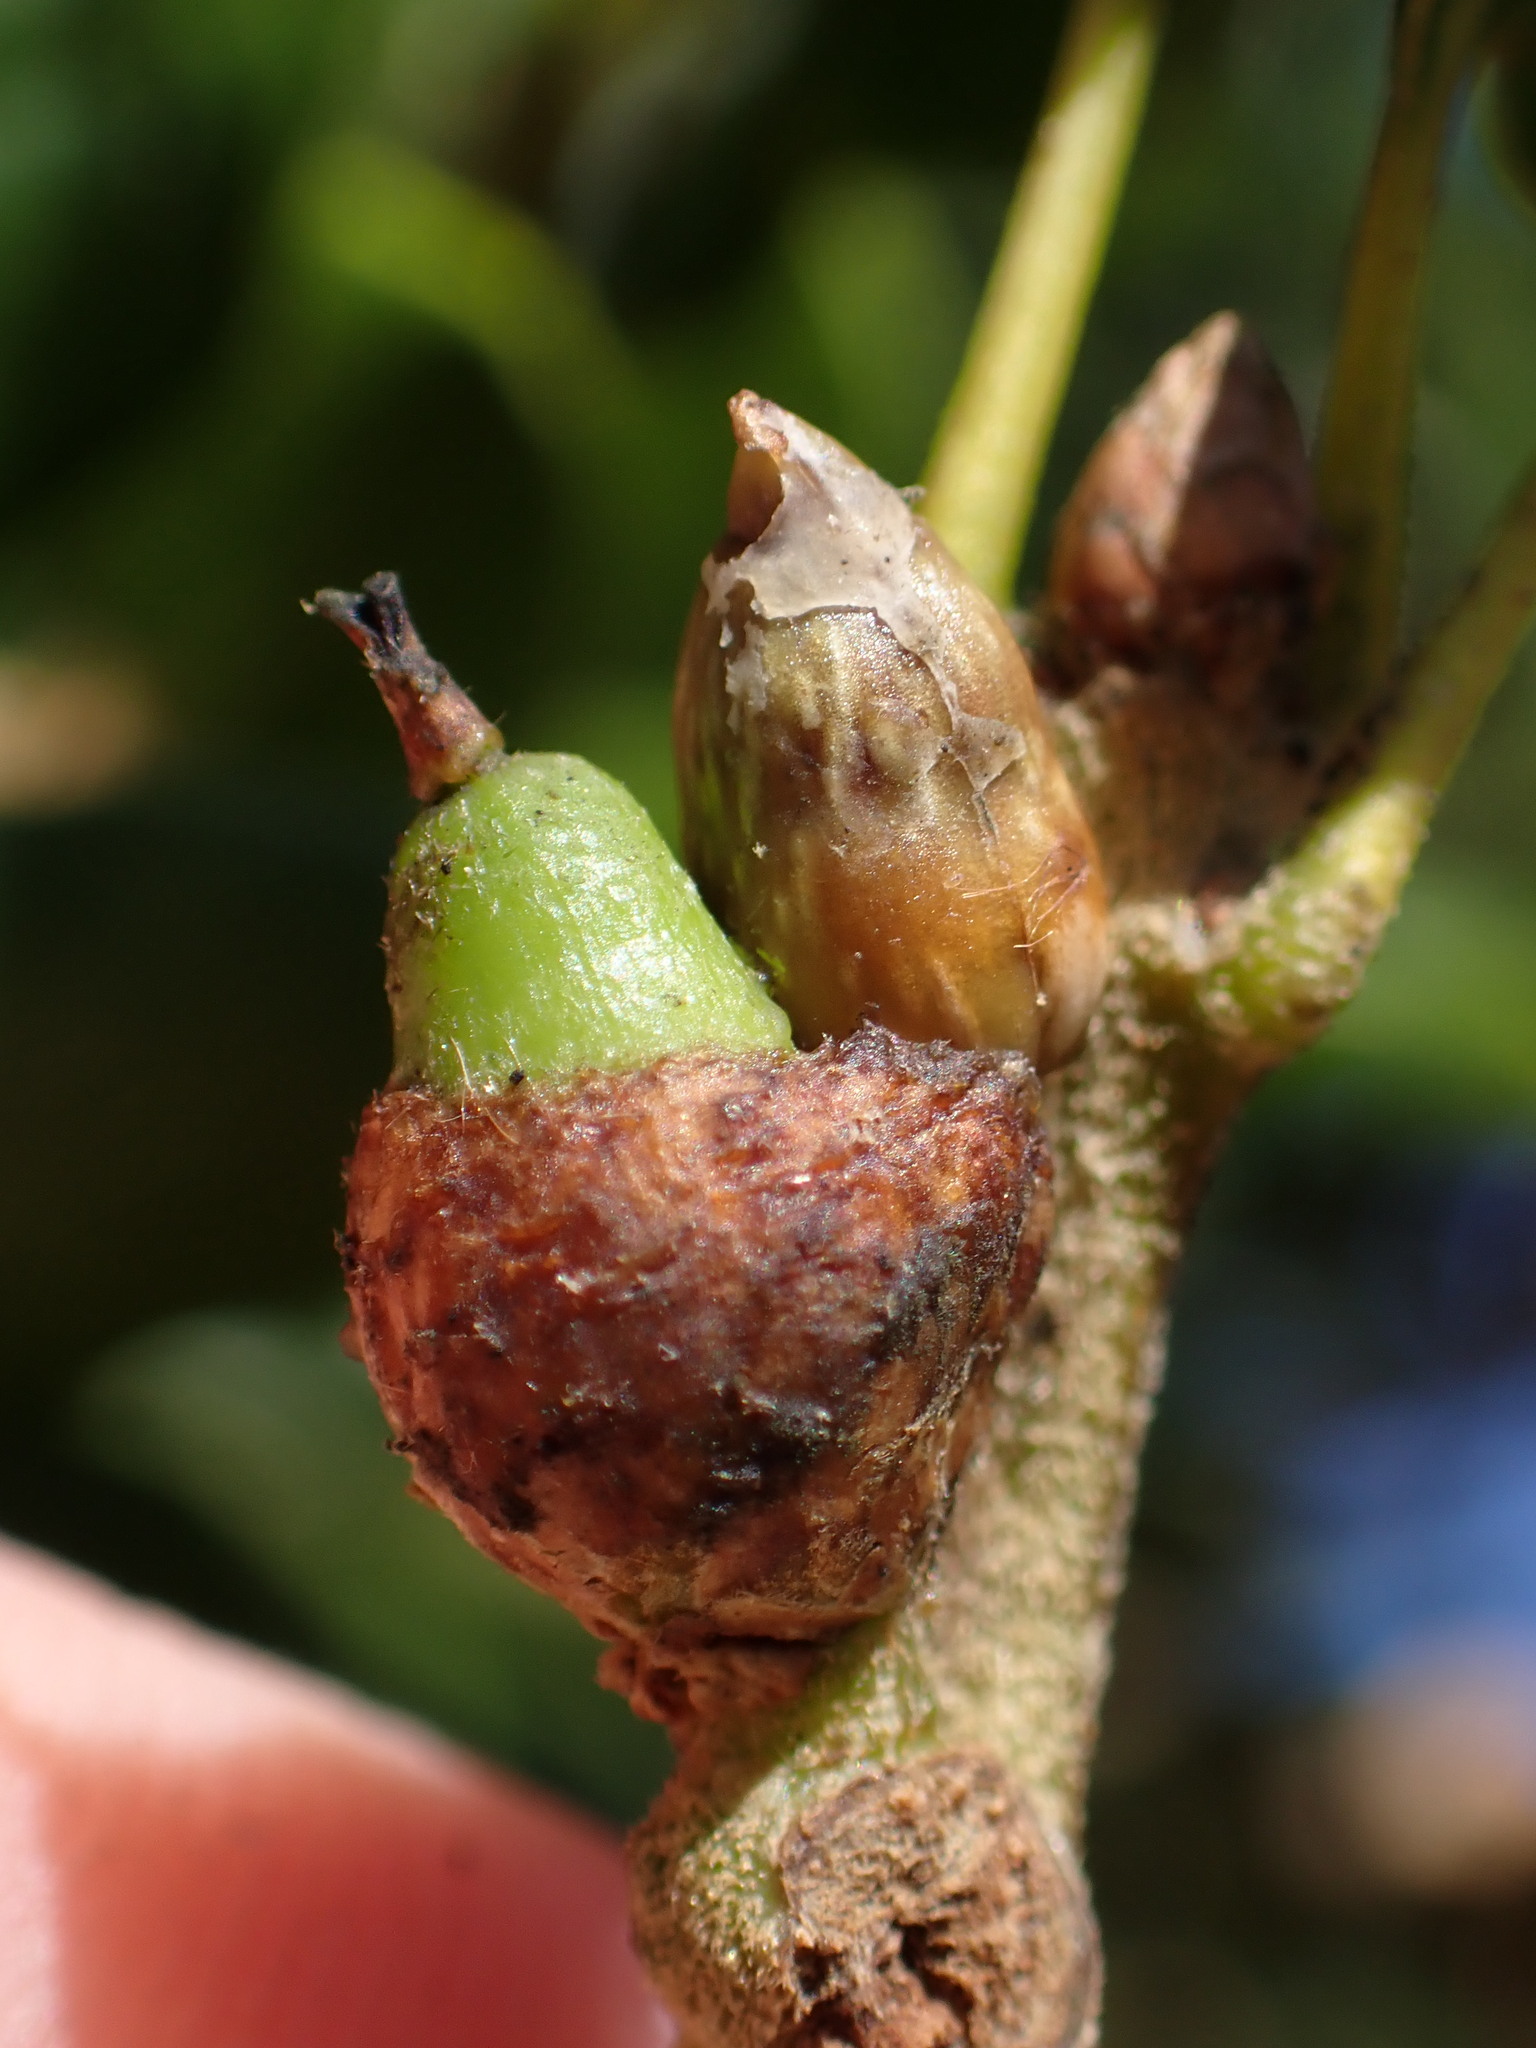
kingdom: Animalia
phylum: Arthropoda
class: Insecta
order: Hymenoptera
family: Cynipidae
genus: Callirhytis
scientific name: Callirhytis
